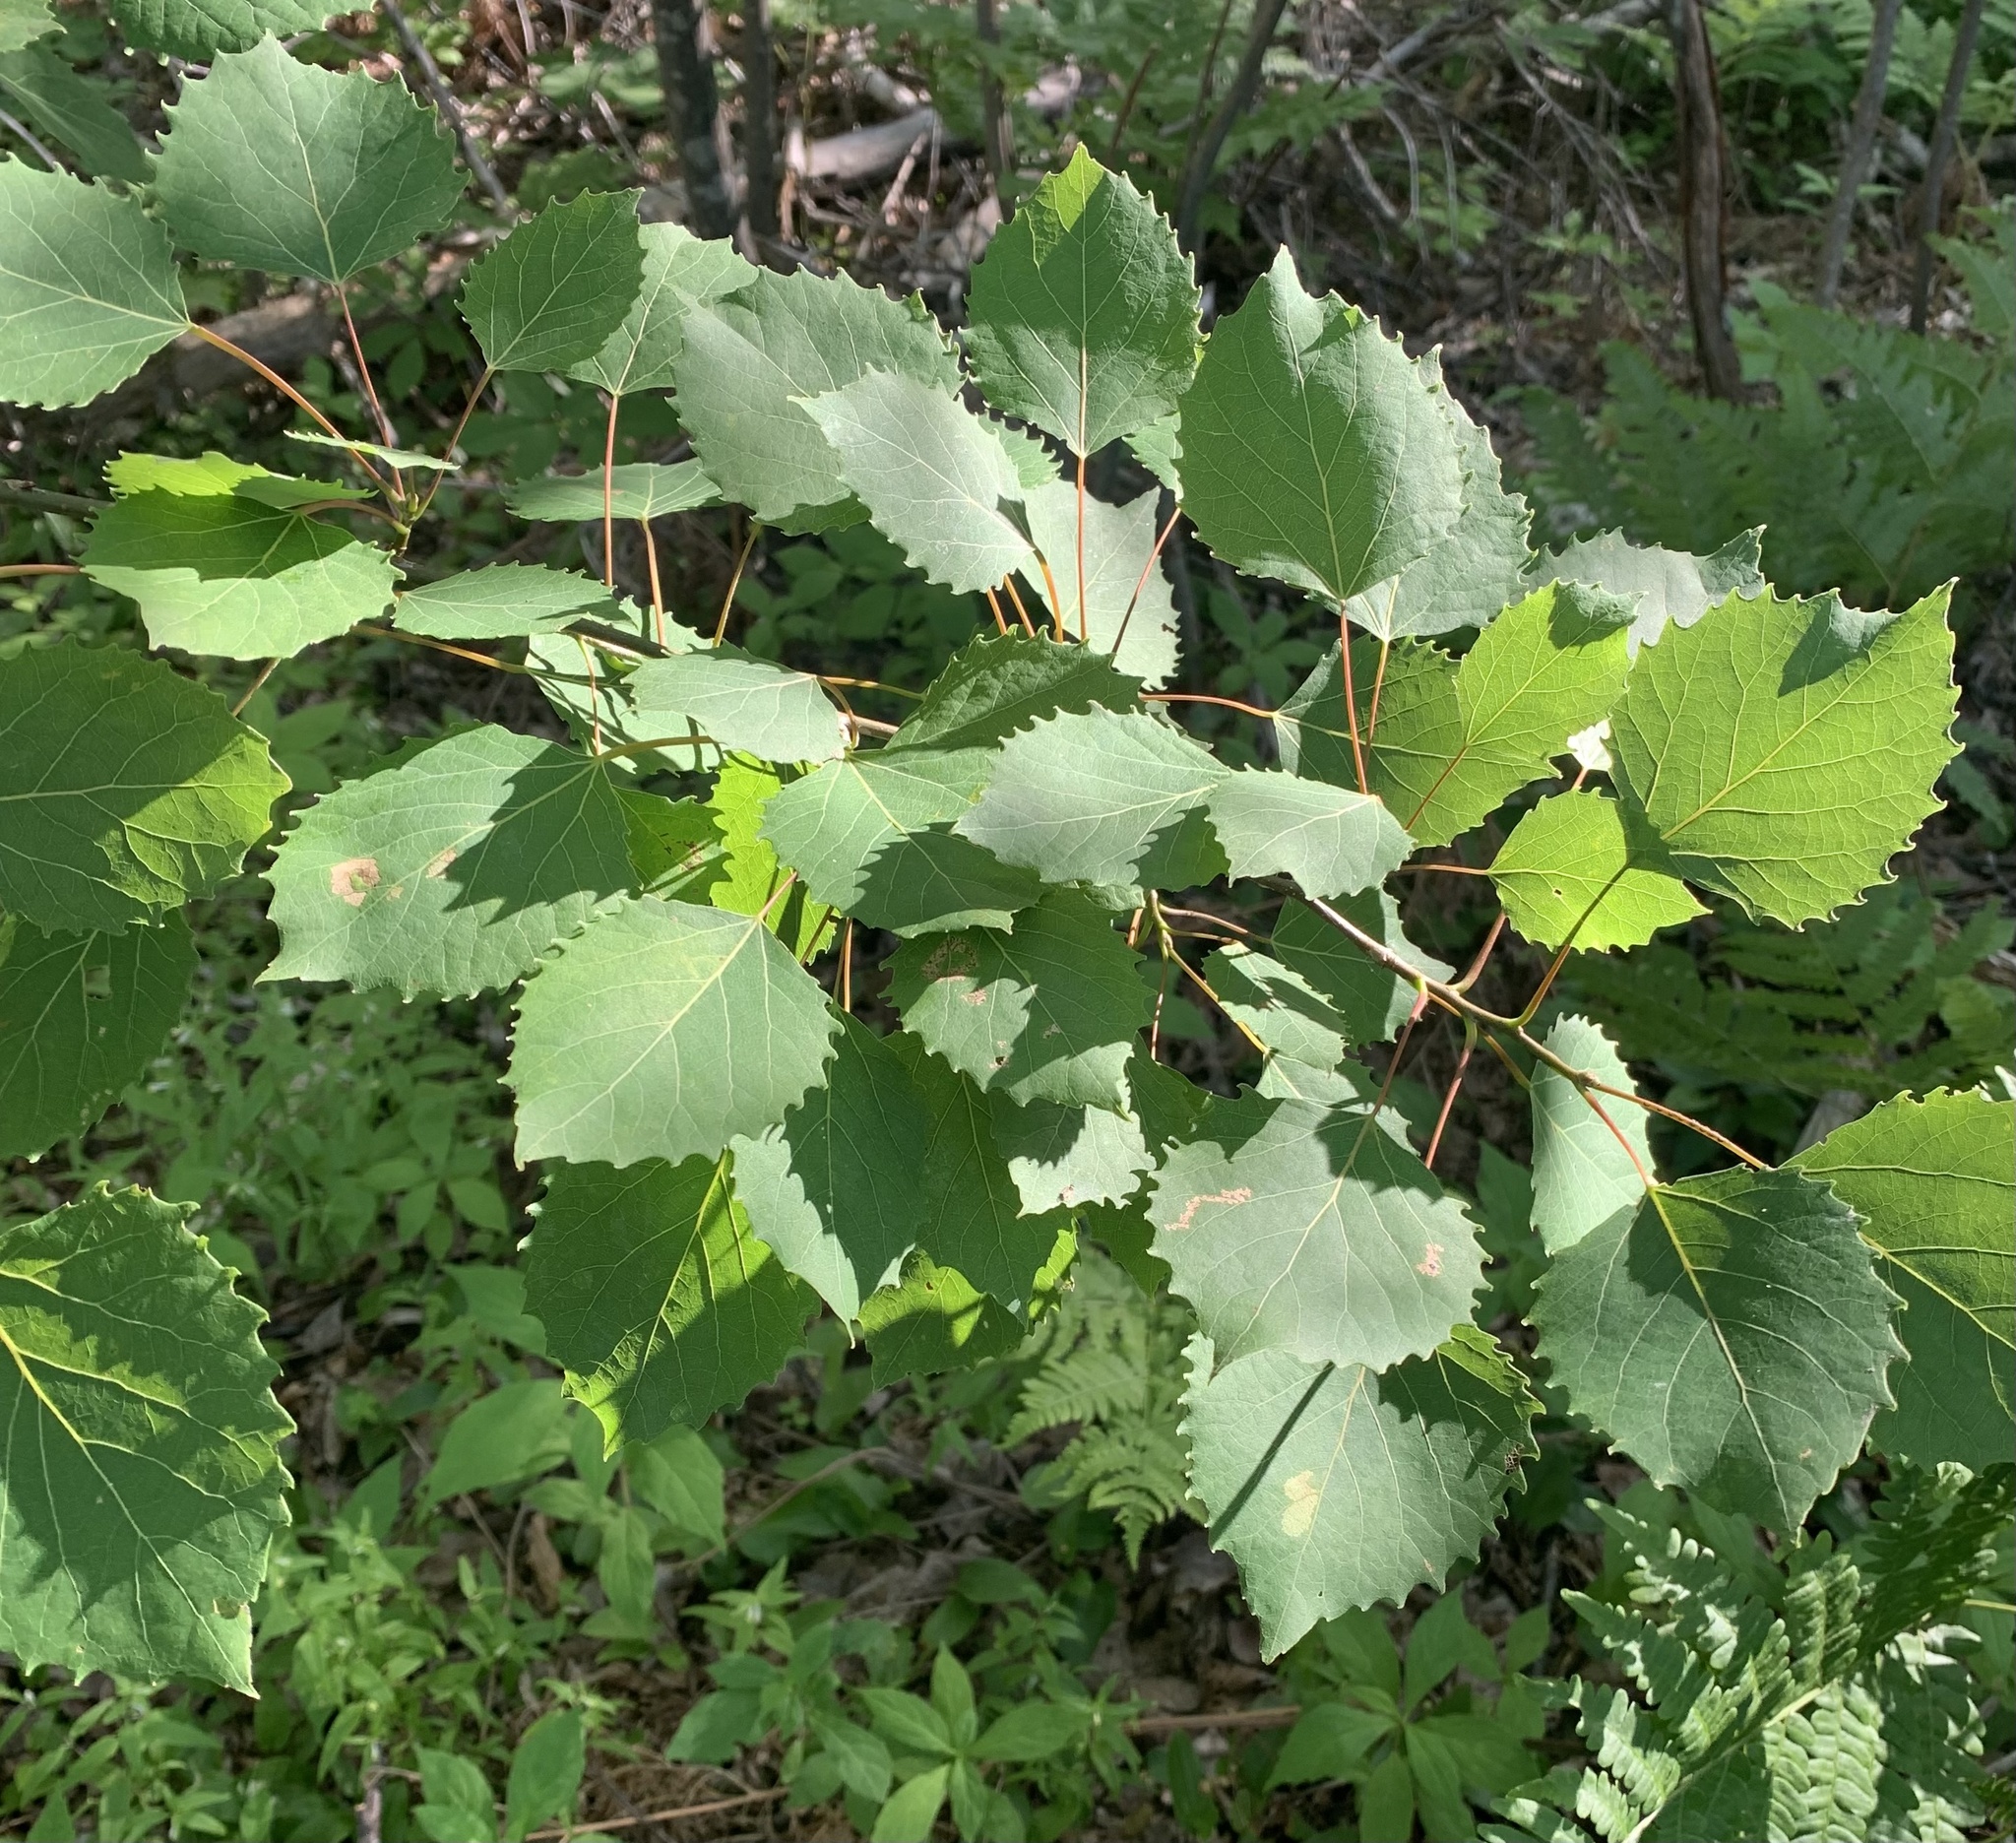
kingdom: Plantae
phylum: Tracheophyta
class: Magnoliopsida
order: Malpighiales
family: Salicaceae
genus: Populus
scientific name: Populus grandidentata
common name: Bigtooth aspen
